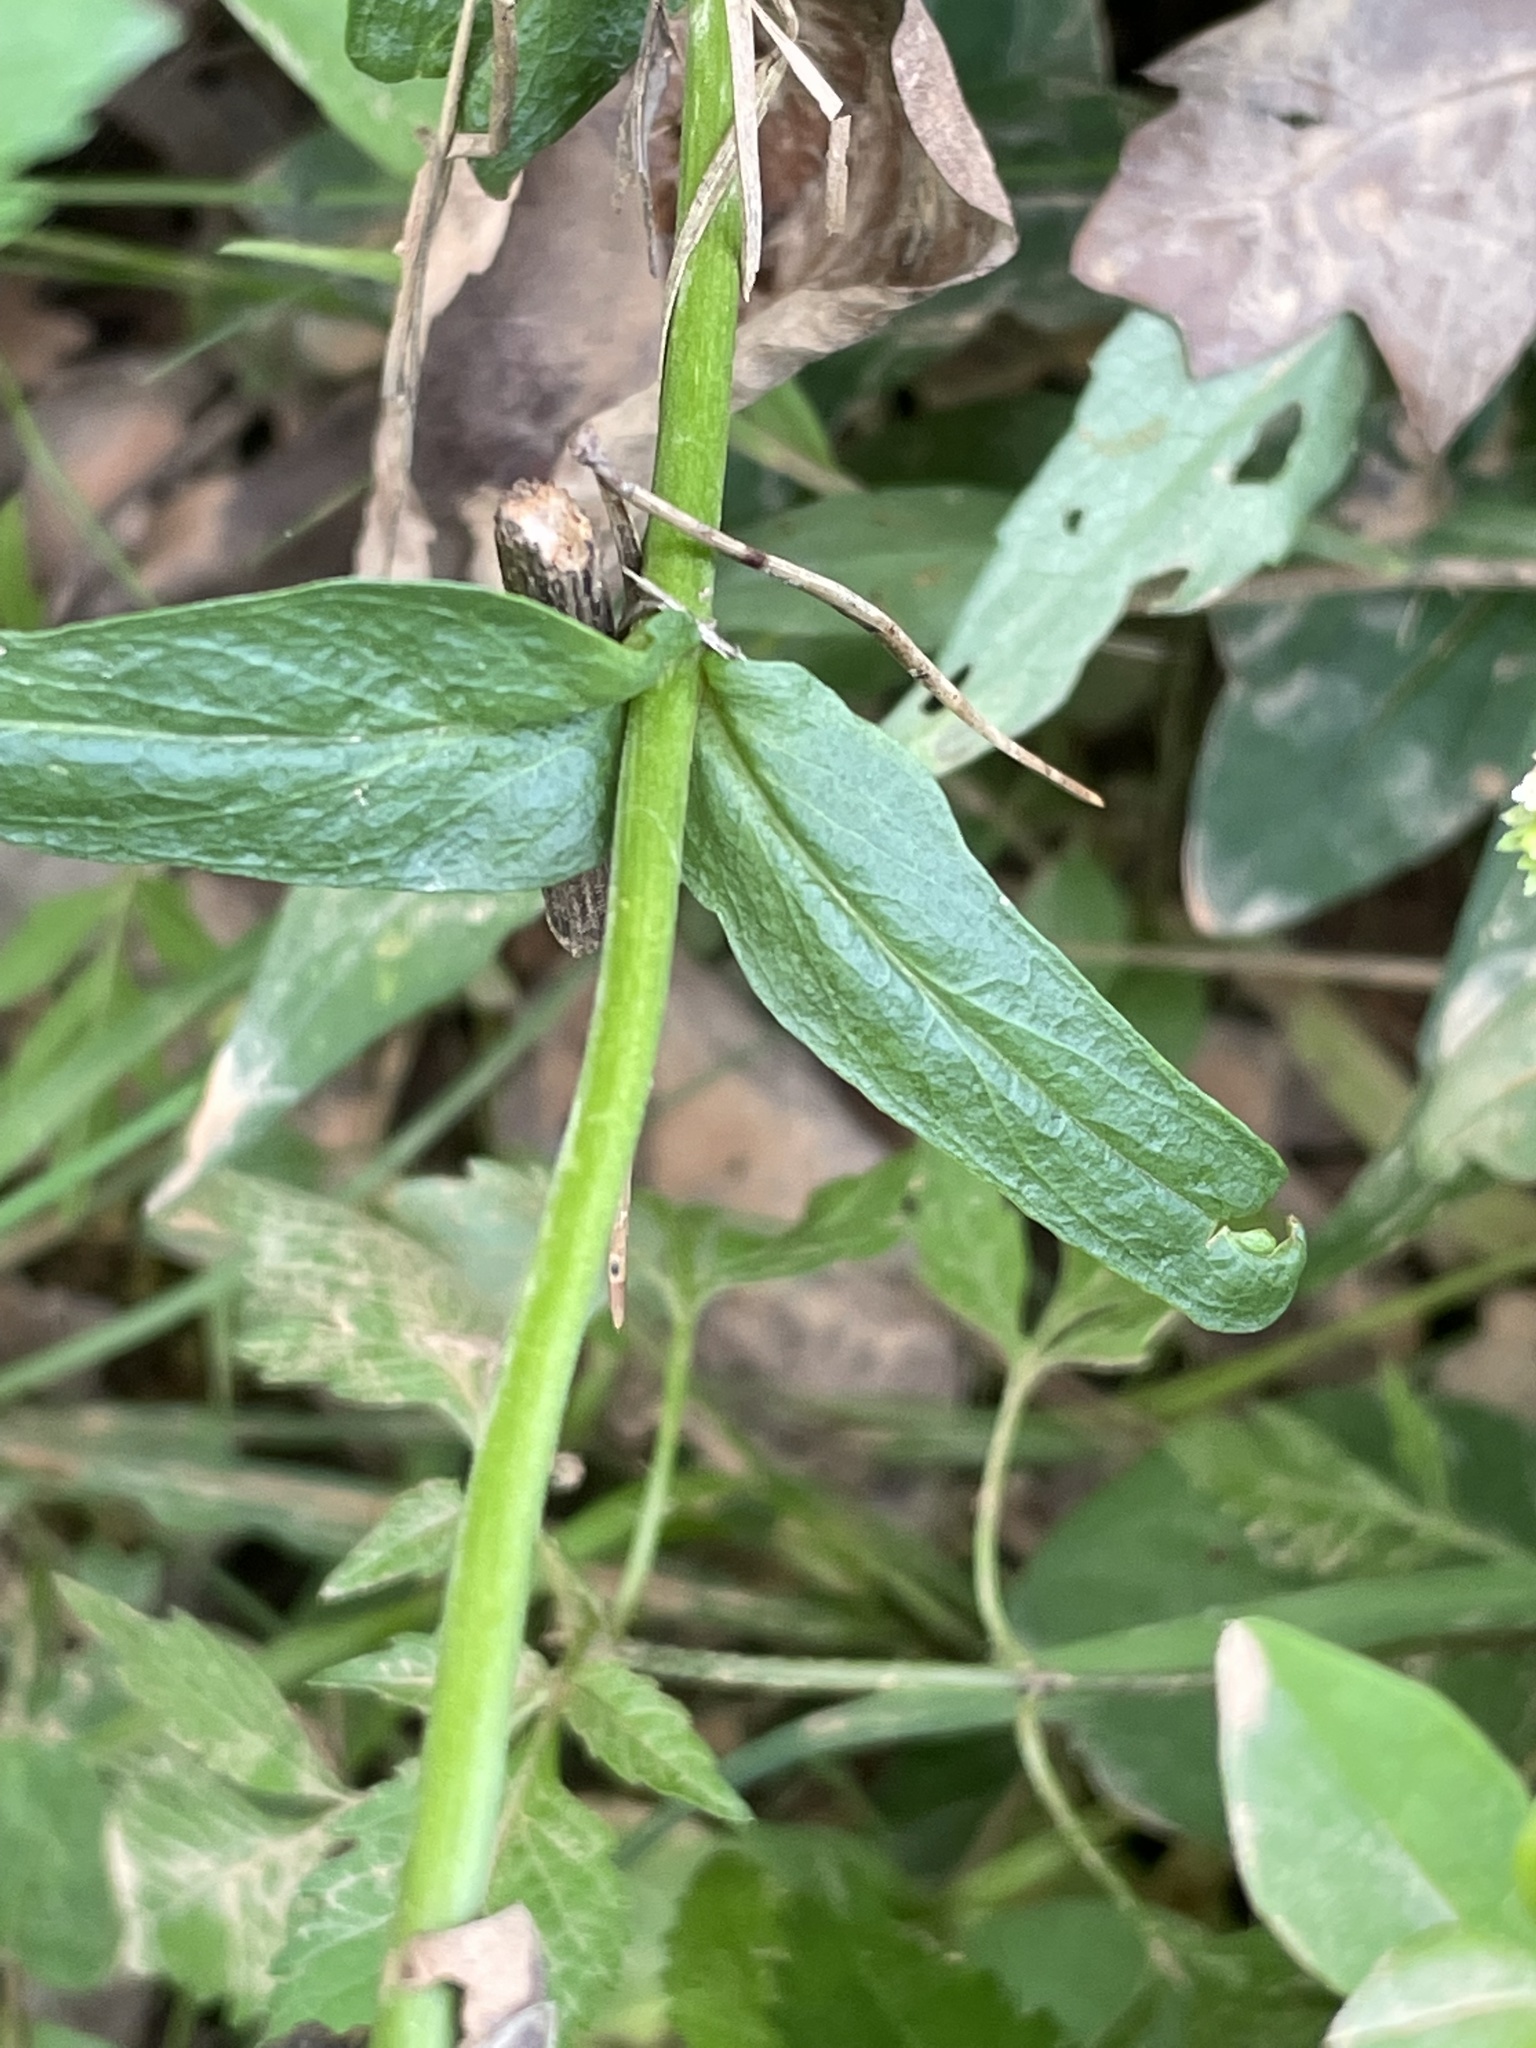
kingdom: Plantae
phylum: Tracheophyta
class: Magnoliopsida
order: Lamiales
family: Plantaginaceae
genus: Penstemon
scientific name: Penstemon laevigatus
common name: Eastern beardtongue
